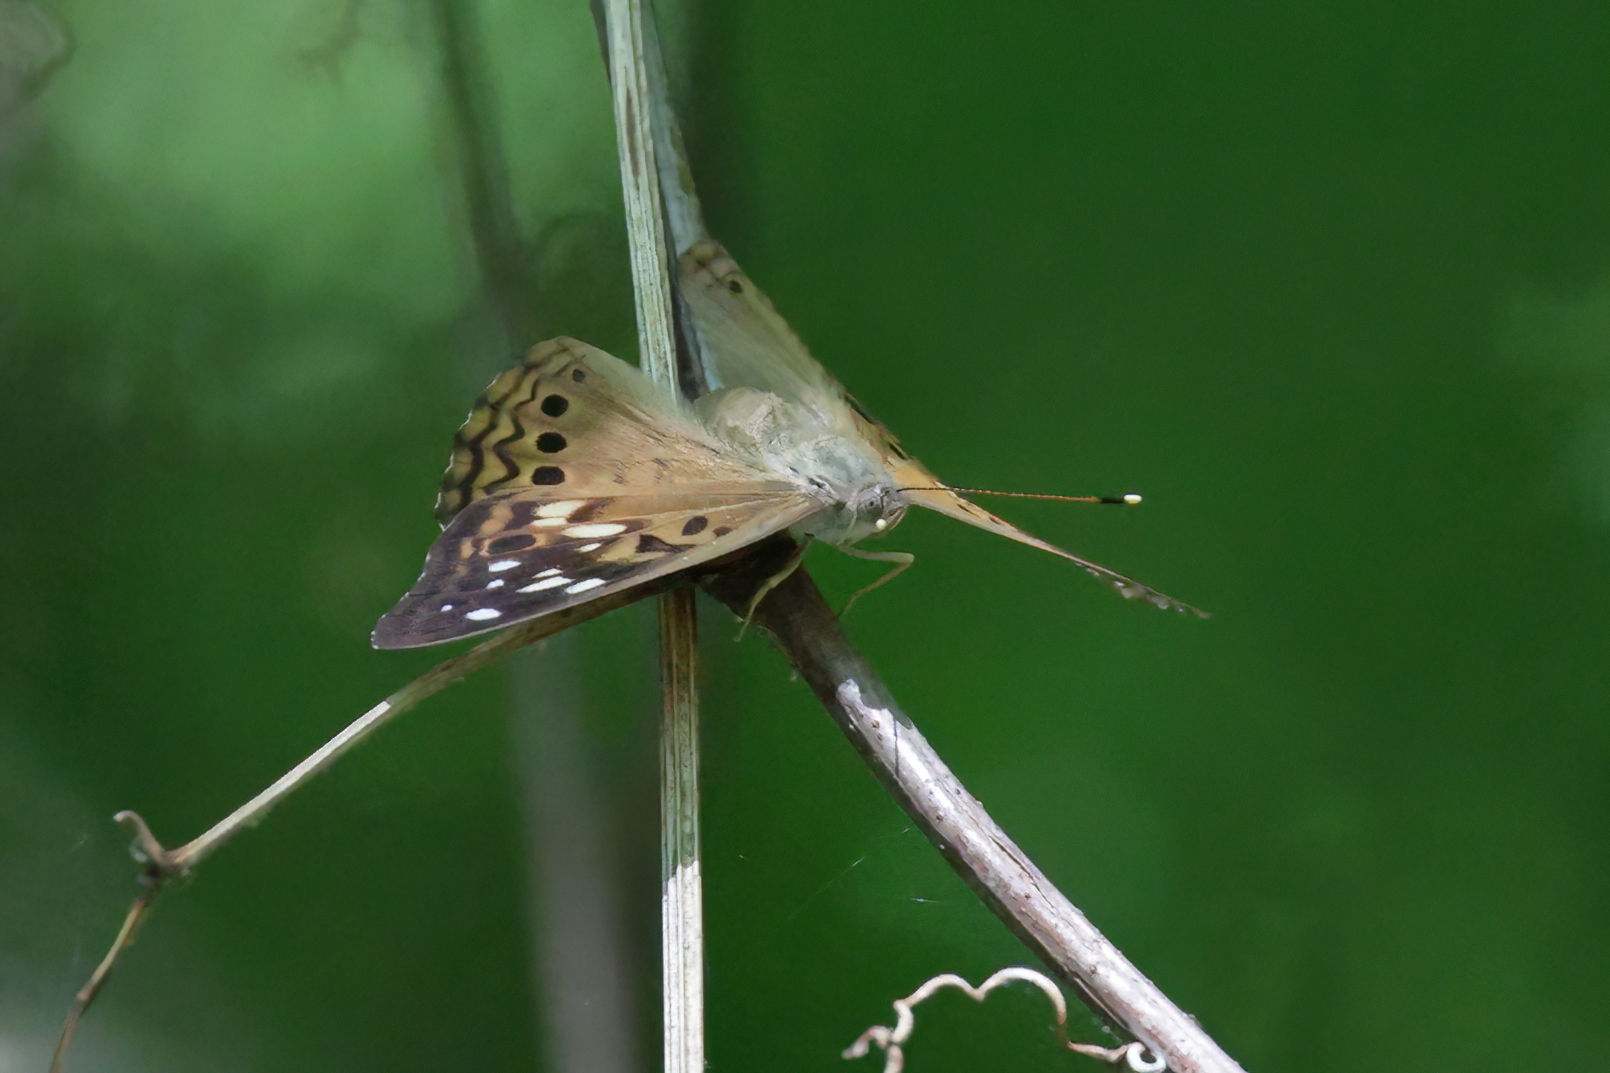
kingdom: Animalia
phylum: Arthropoda
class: Insecta
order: Lepidoptera
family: Nymphalidae
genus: Asterocampa
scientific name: Asterocampa celtis
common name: Hackberry emperor
